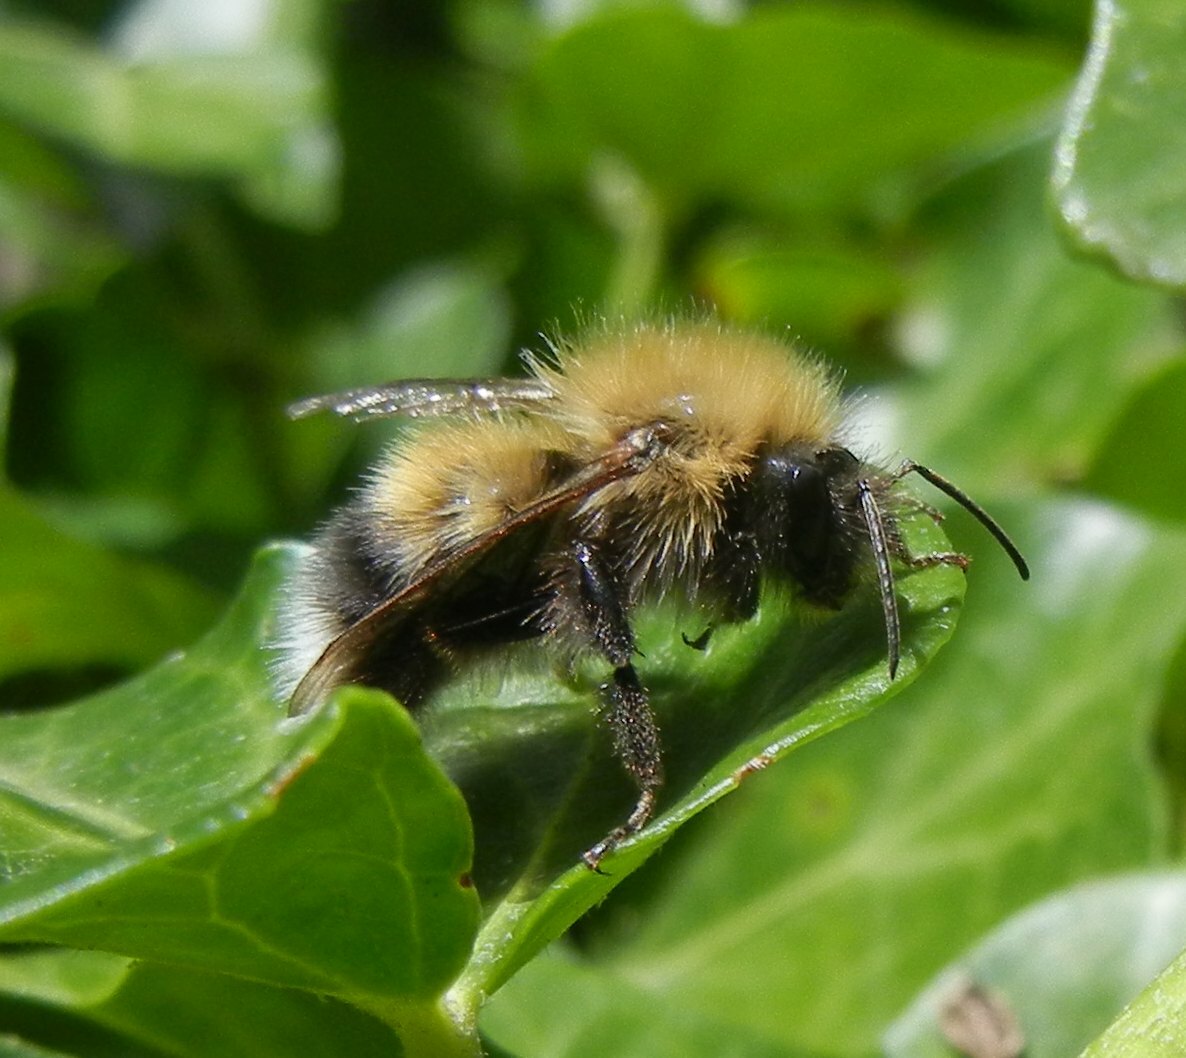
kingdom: Animalia
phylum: Arthropoda
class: Insecta
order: Hymenoptera
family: Apidae
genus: Bombus
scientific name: Bombus hypnorum
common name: New garden bumblebee
